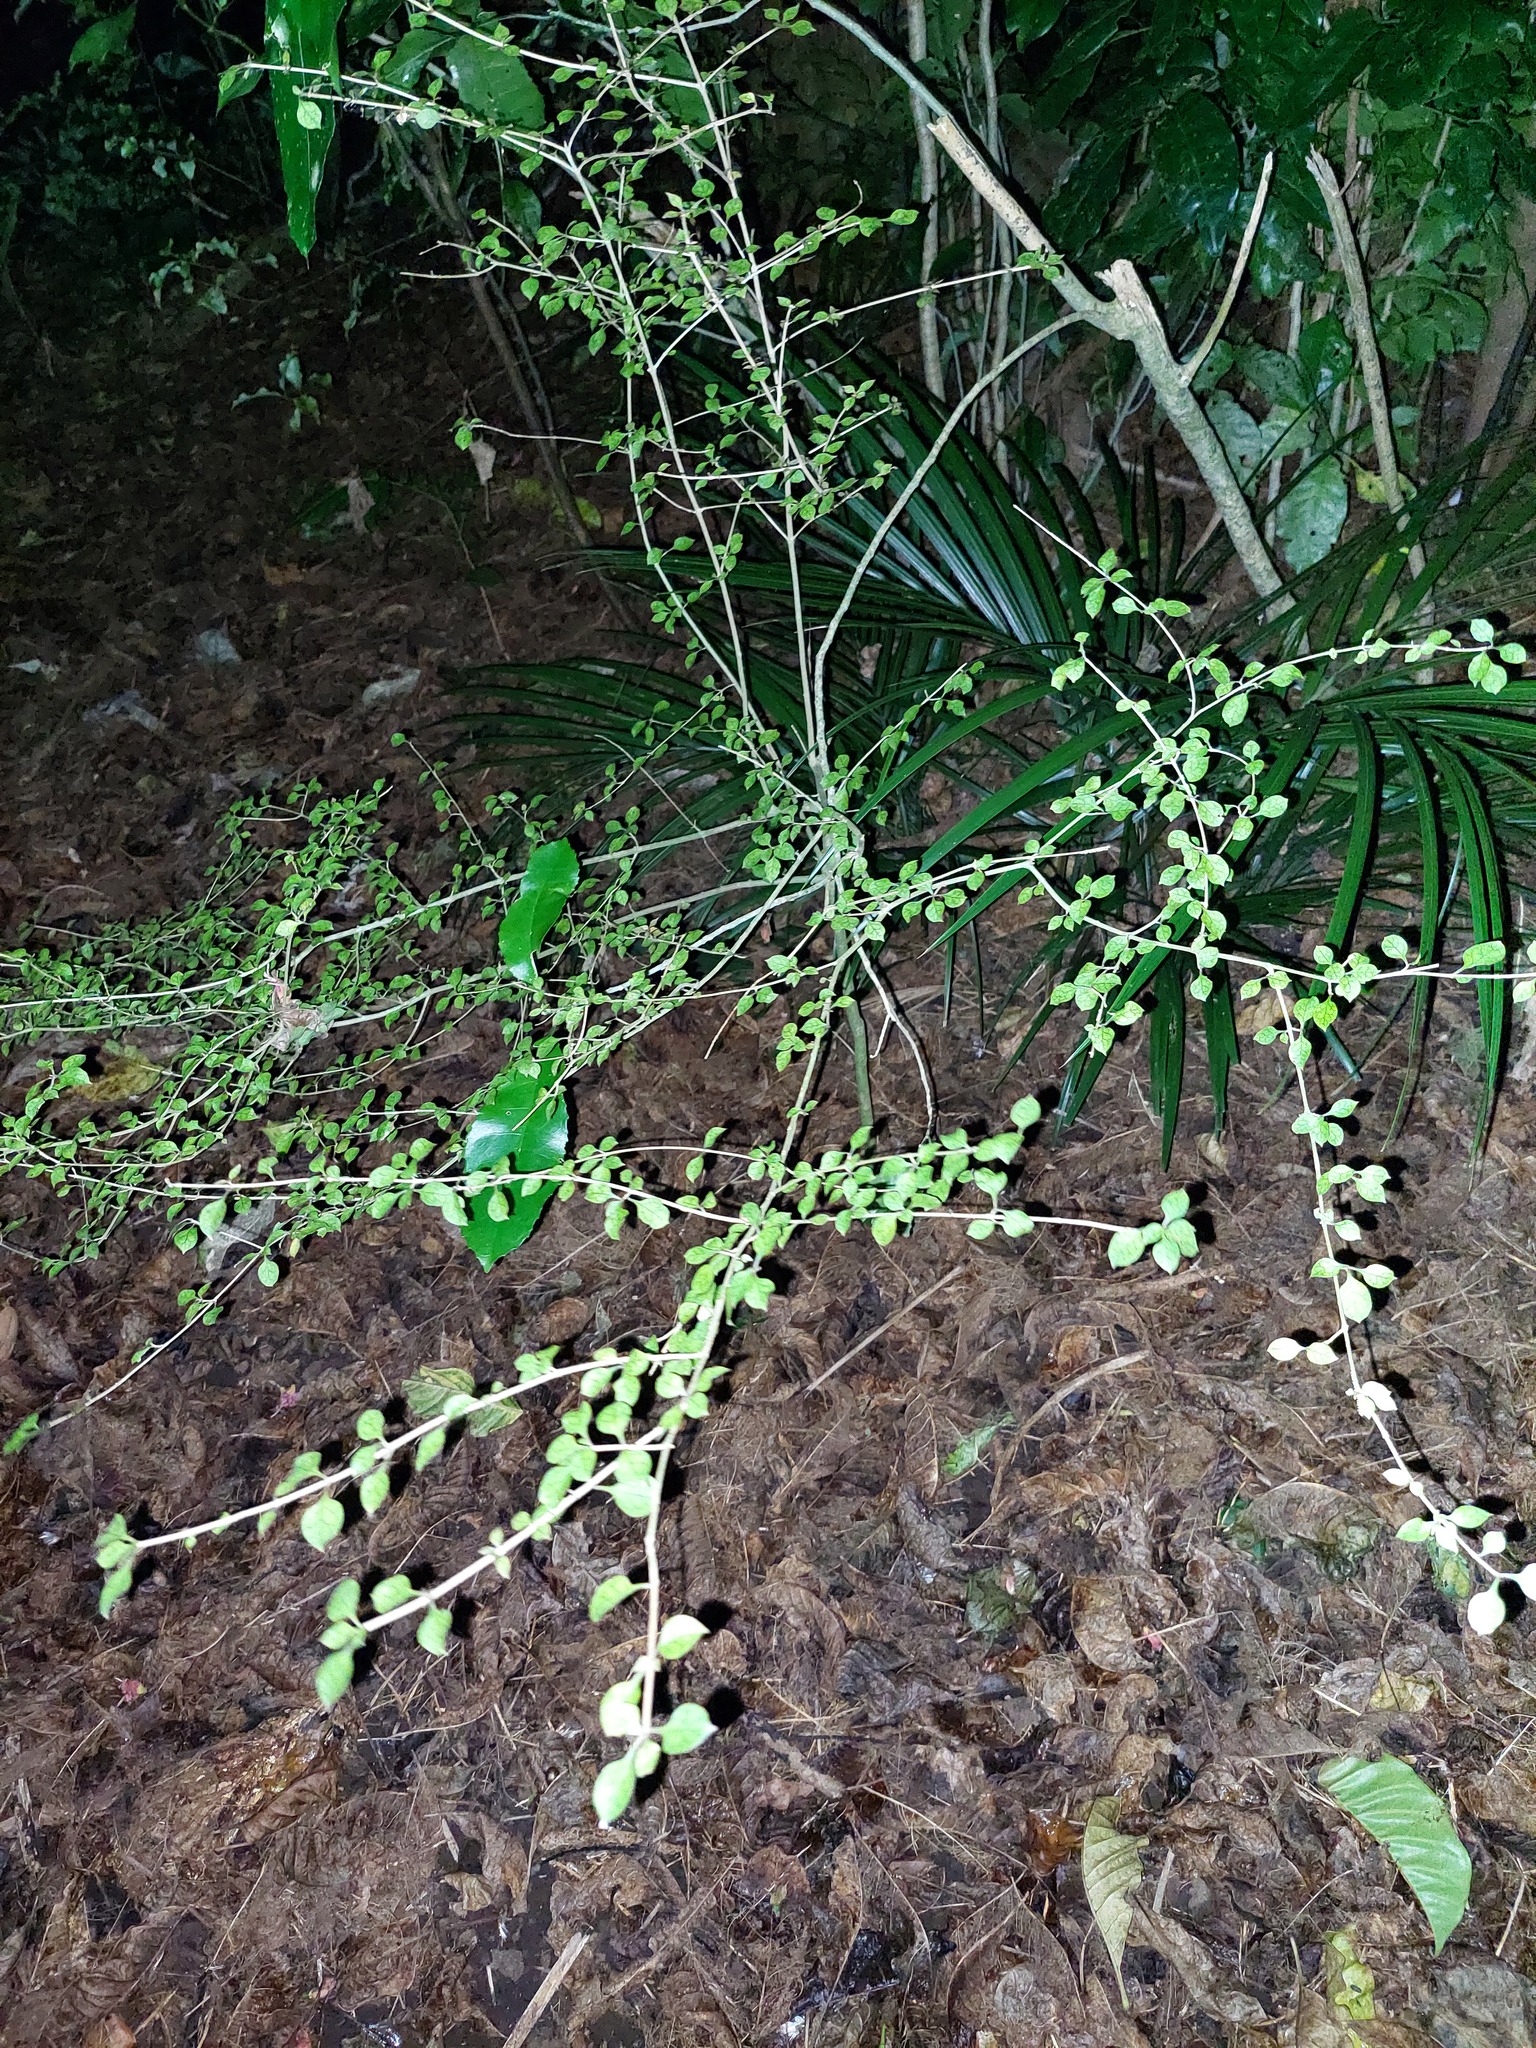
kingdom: Plantae
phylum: Tracheophyta
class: Magnoliopsida
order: Gentianales
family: Rubiaceae
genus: Coprosma
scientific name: Coprosma areolata
